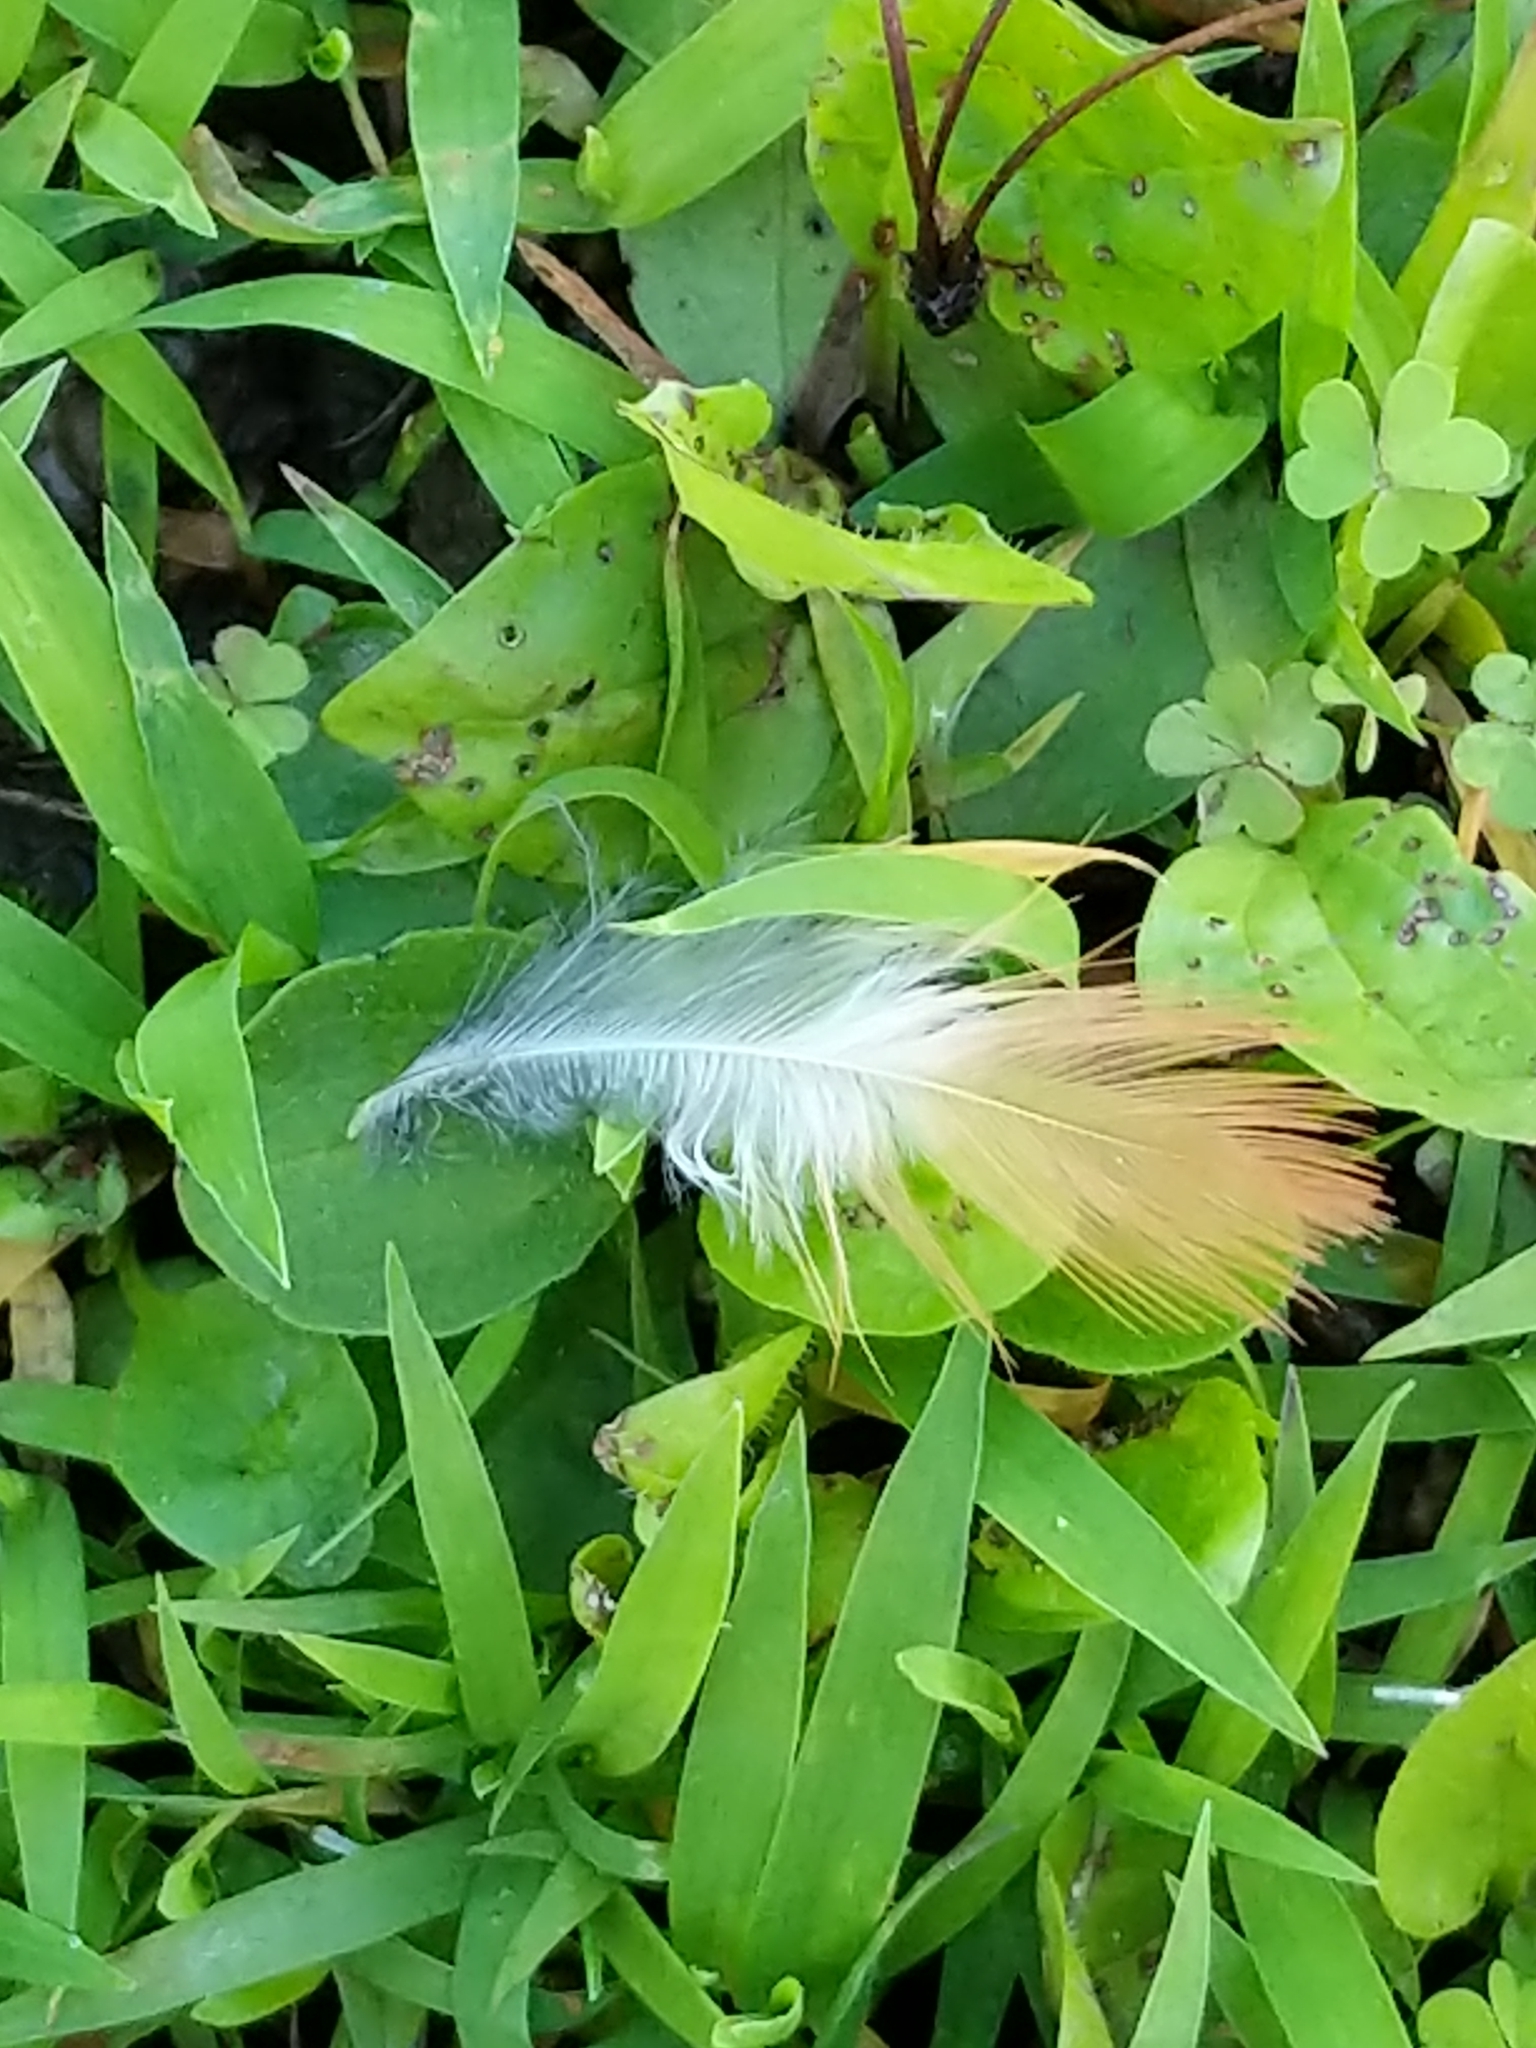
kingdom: Animalia
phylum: Chordata
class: Aves
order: Passeriformes
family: Turdidae
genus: Turdus
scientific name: Turdus migratorius
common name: American robin
